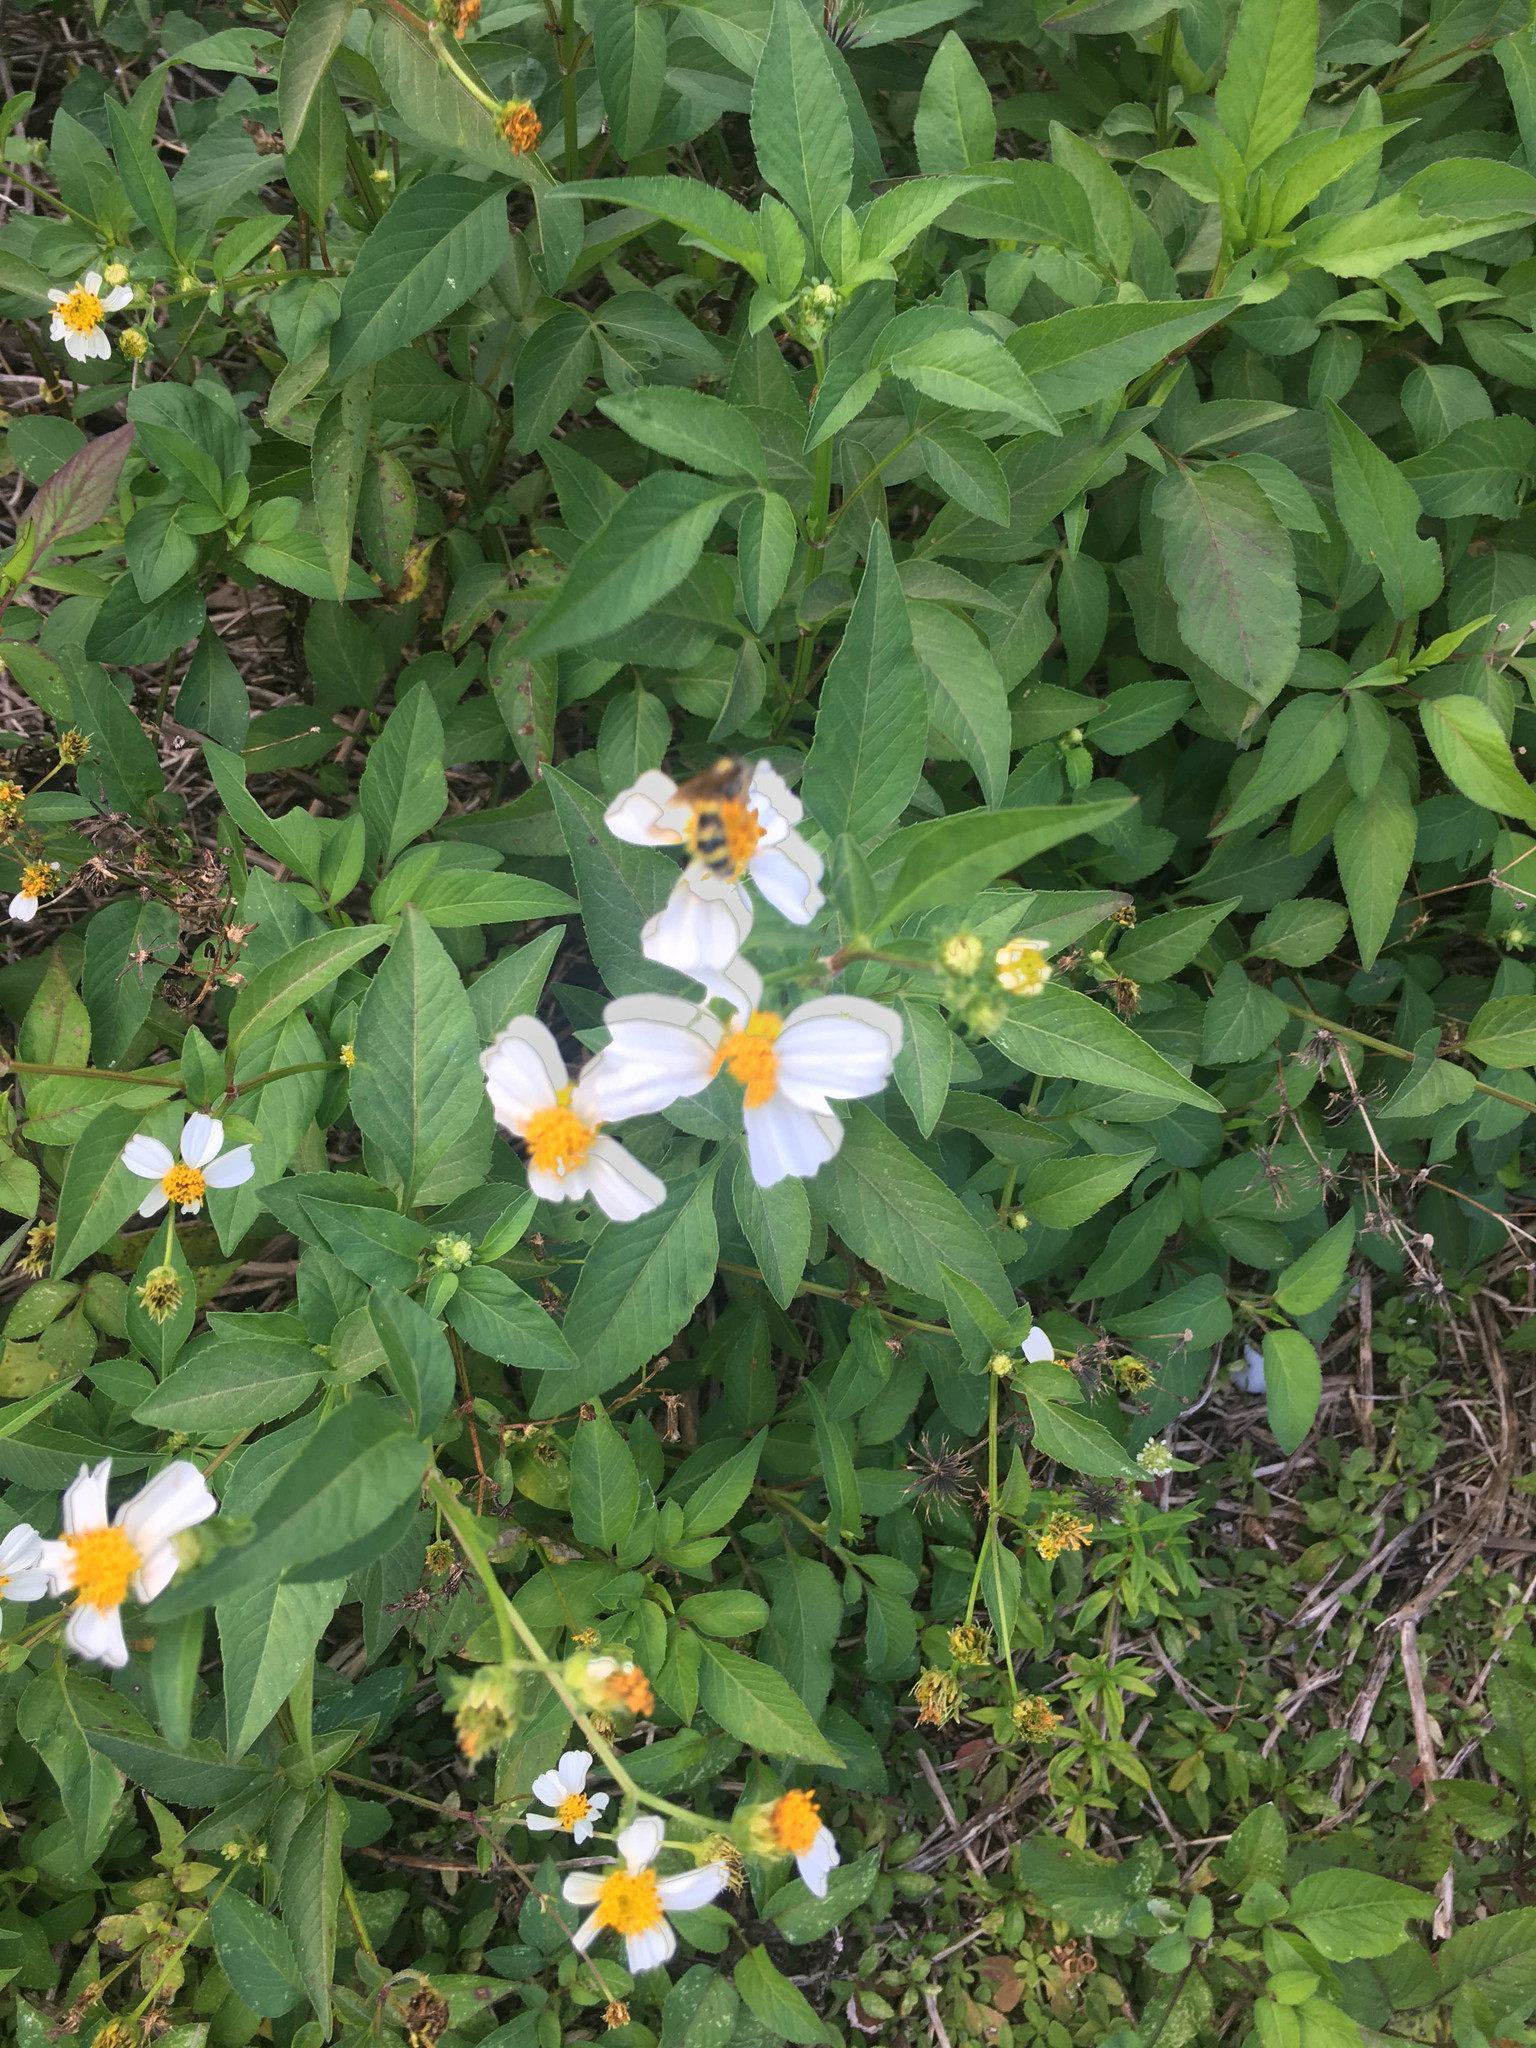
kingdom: Plantae
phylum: Tracheophyta
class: Magnoliopsida
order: Asterales
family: Asteraceae
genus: Bidens
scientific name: Bidens alba
